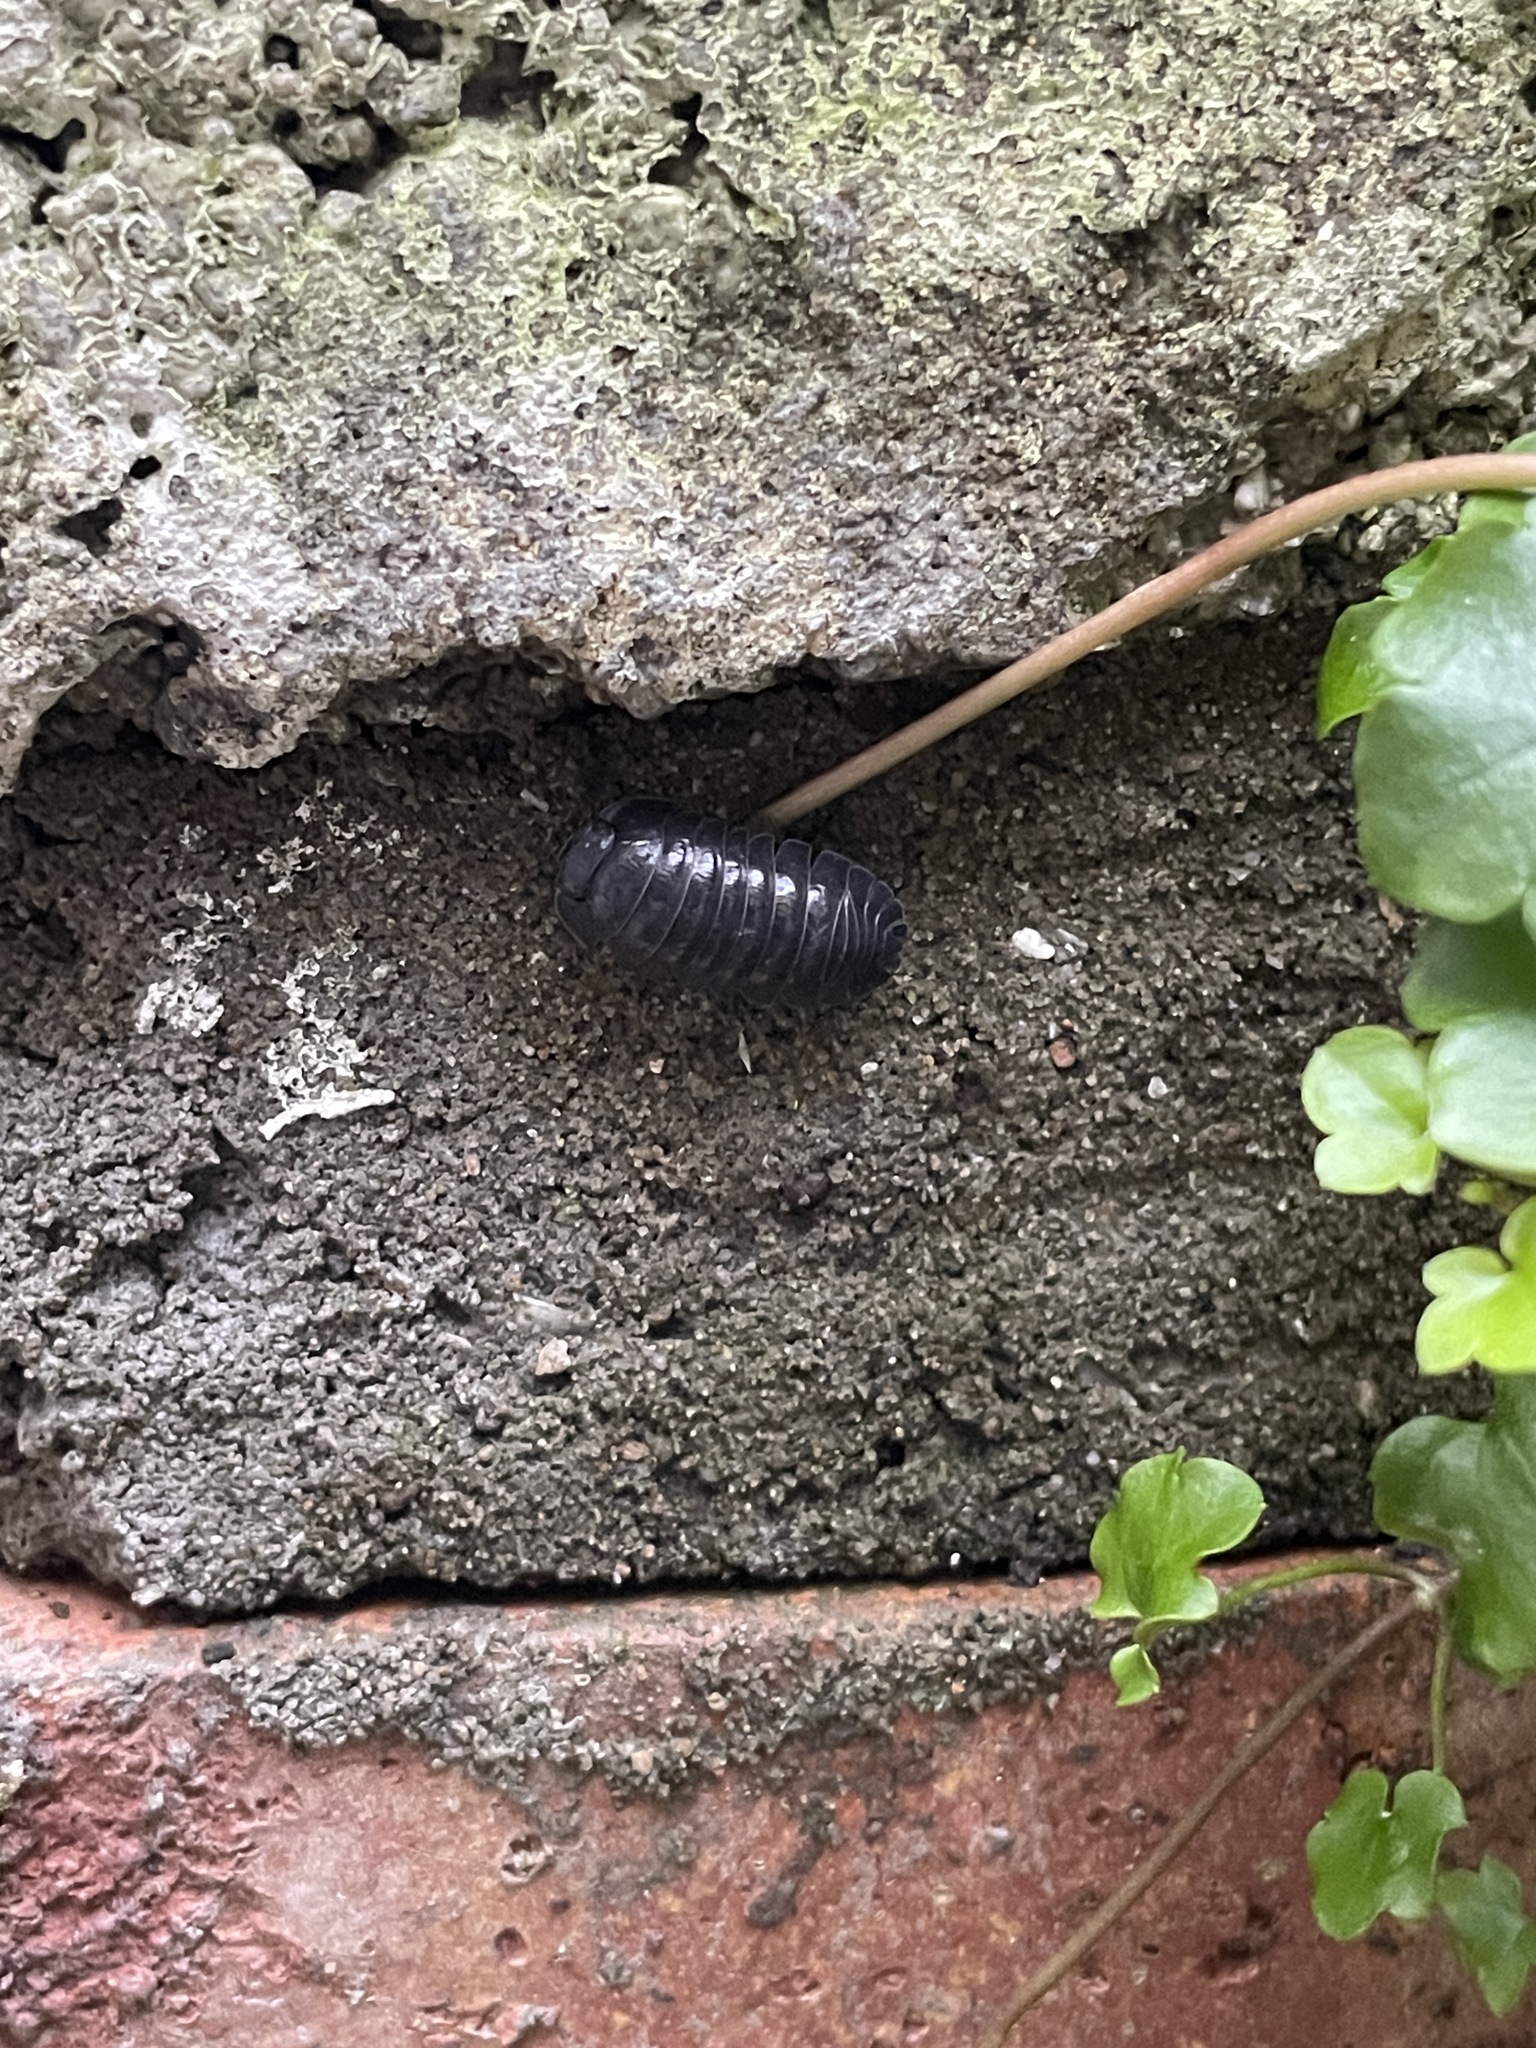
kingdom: Animalia
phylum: Arthropoda
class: Malacostraca
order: Isopoda
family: Armadillidiidae
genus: Armadillidium
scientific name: Armadillidium depressum
